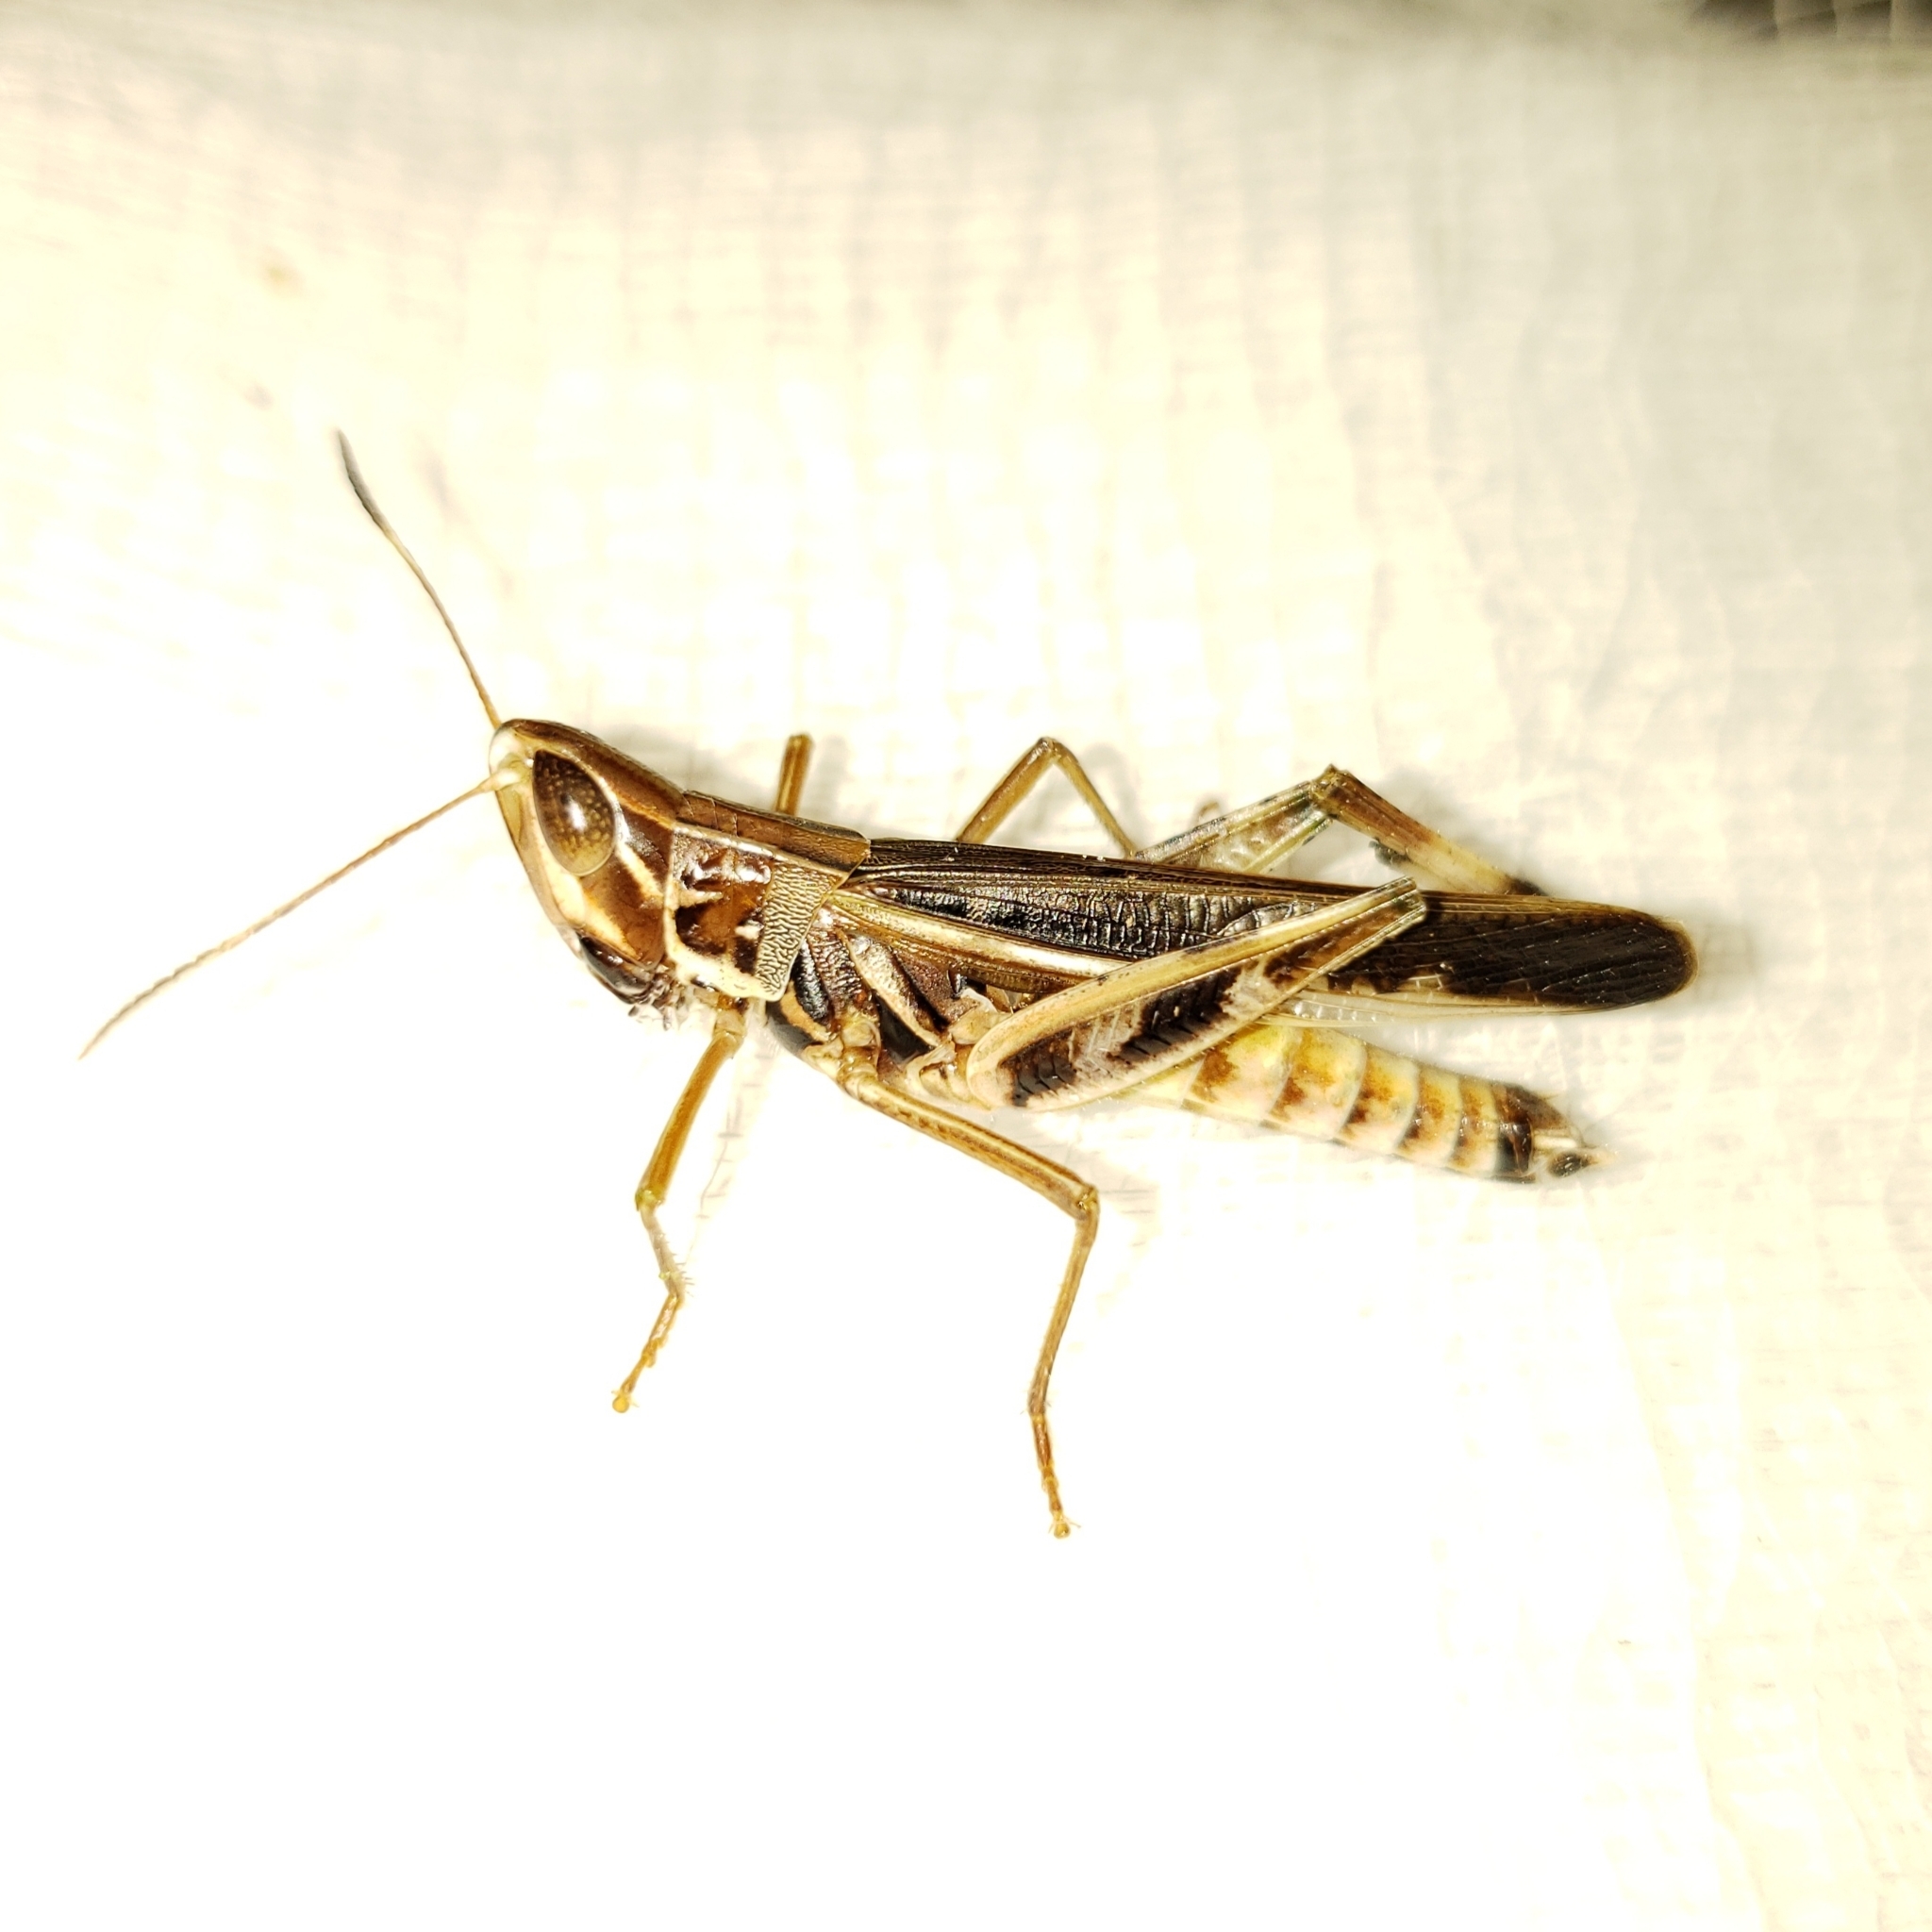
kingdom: Animalia
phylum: Arthropoda
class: Insecta
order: Orthoptera
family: Acrididae
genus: Syrbula
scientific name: Syrbula admirabilis
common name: Handsome grasshopper
